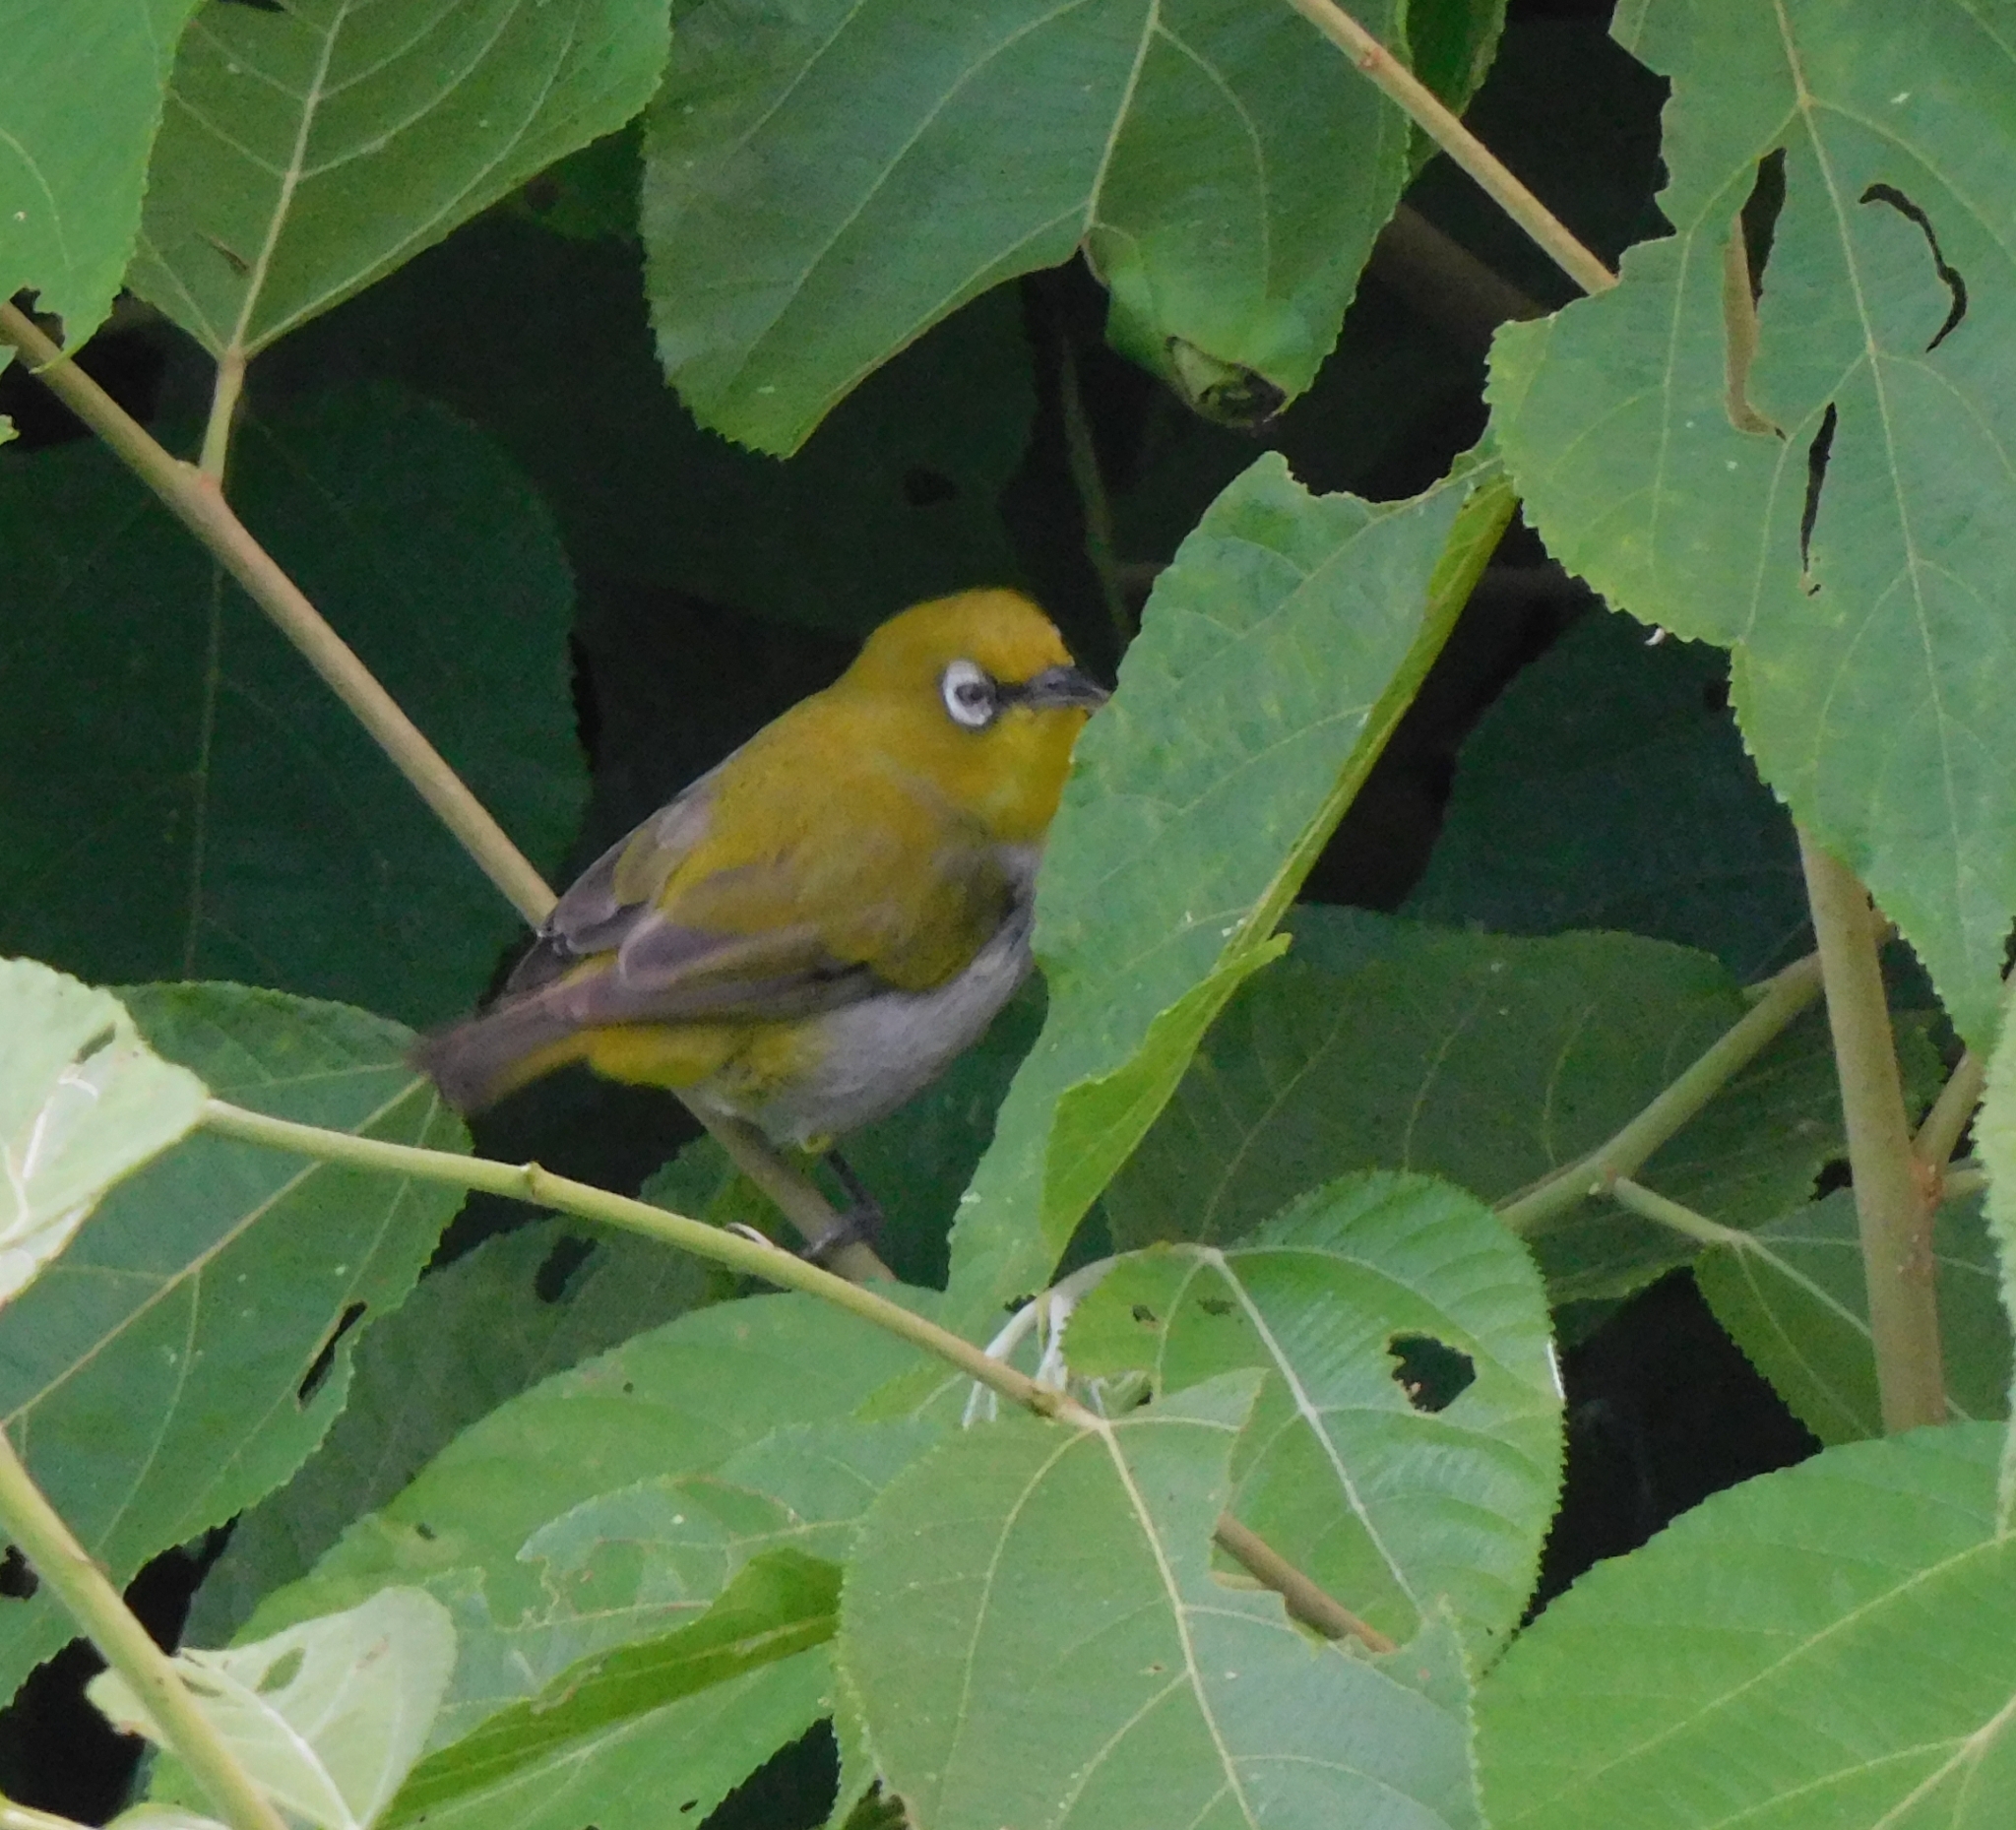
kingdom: Animalia
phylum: Chordata
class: Aves
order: Passeriformes
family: Zosteropidae
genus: Zosterops
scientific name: Zosterops palpebrosus
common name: Oriental white-eye
